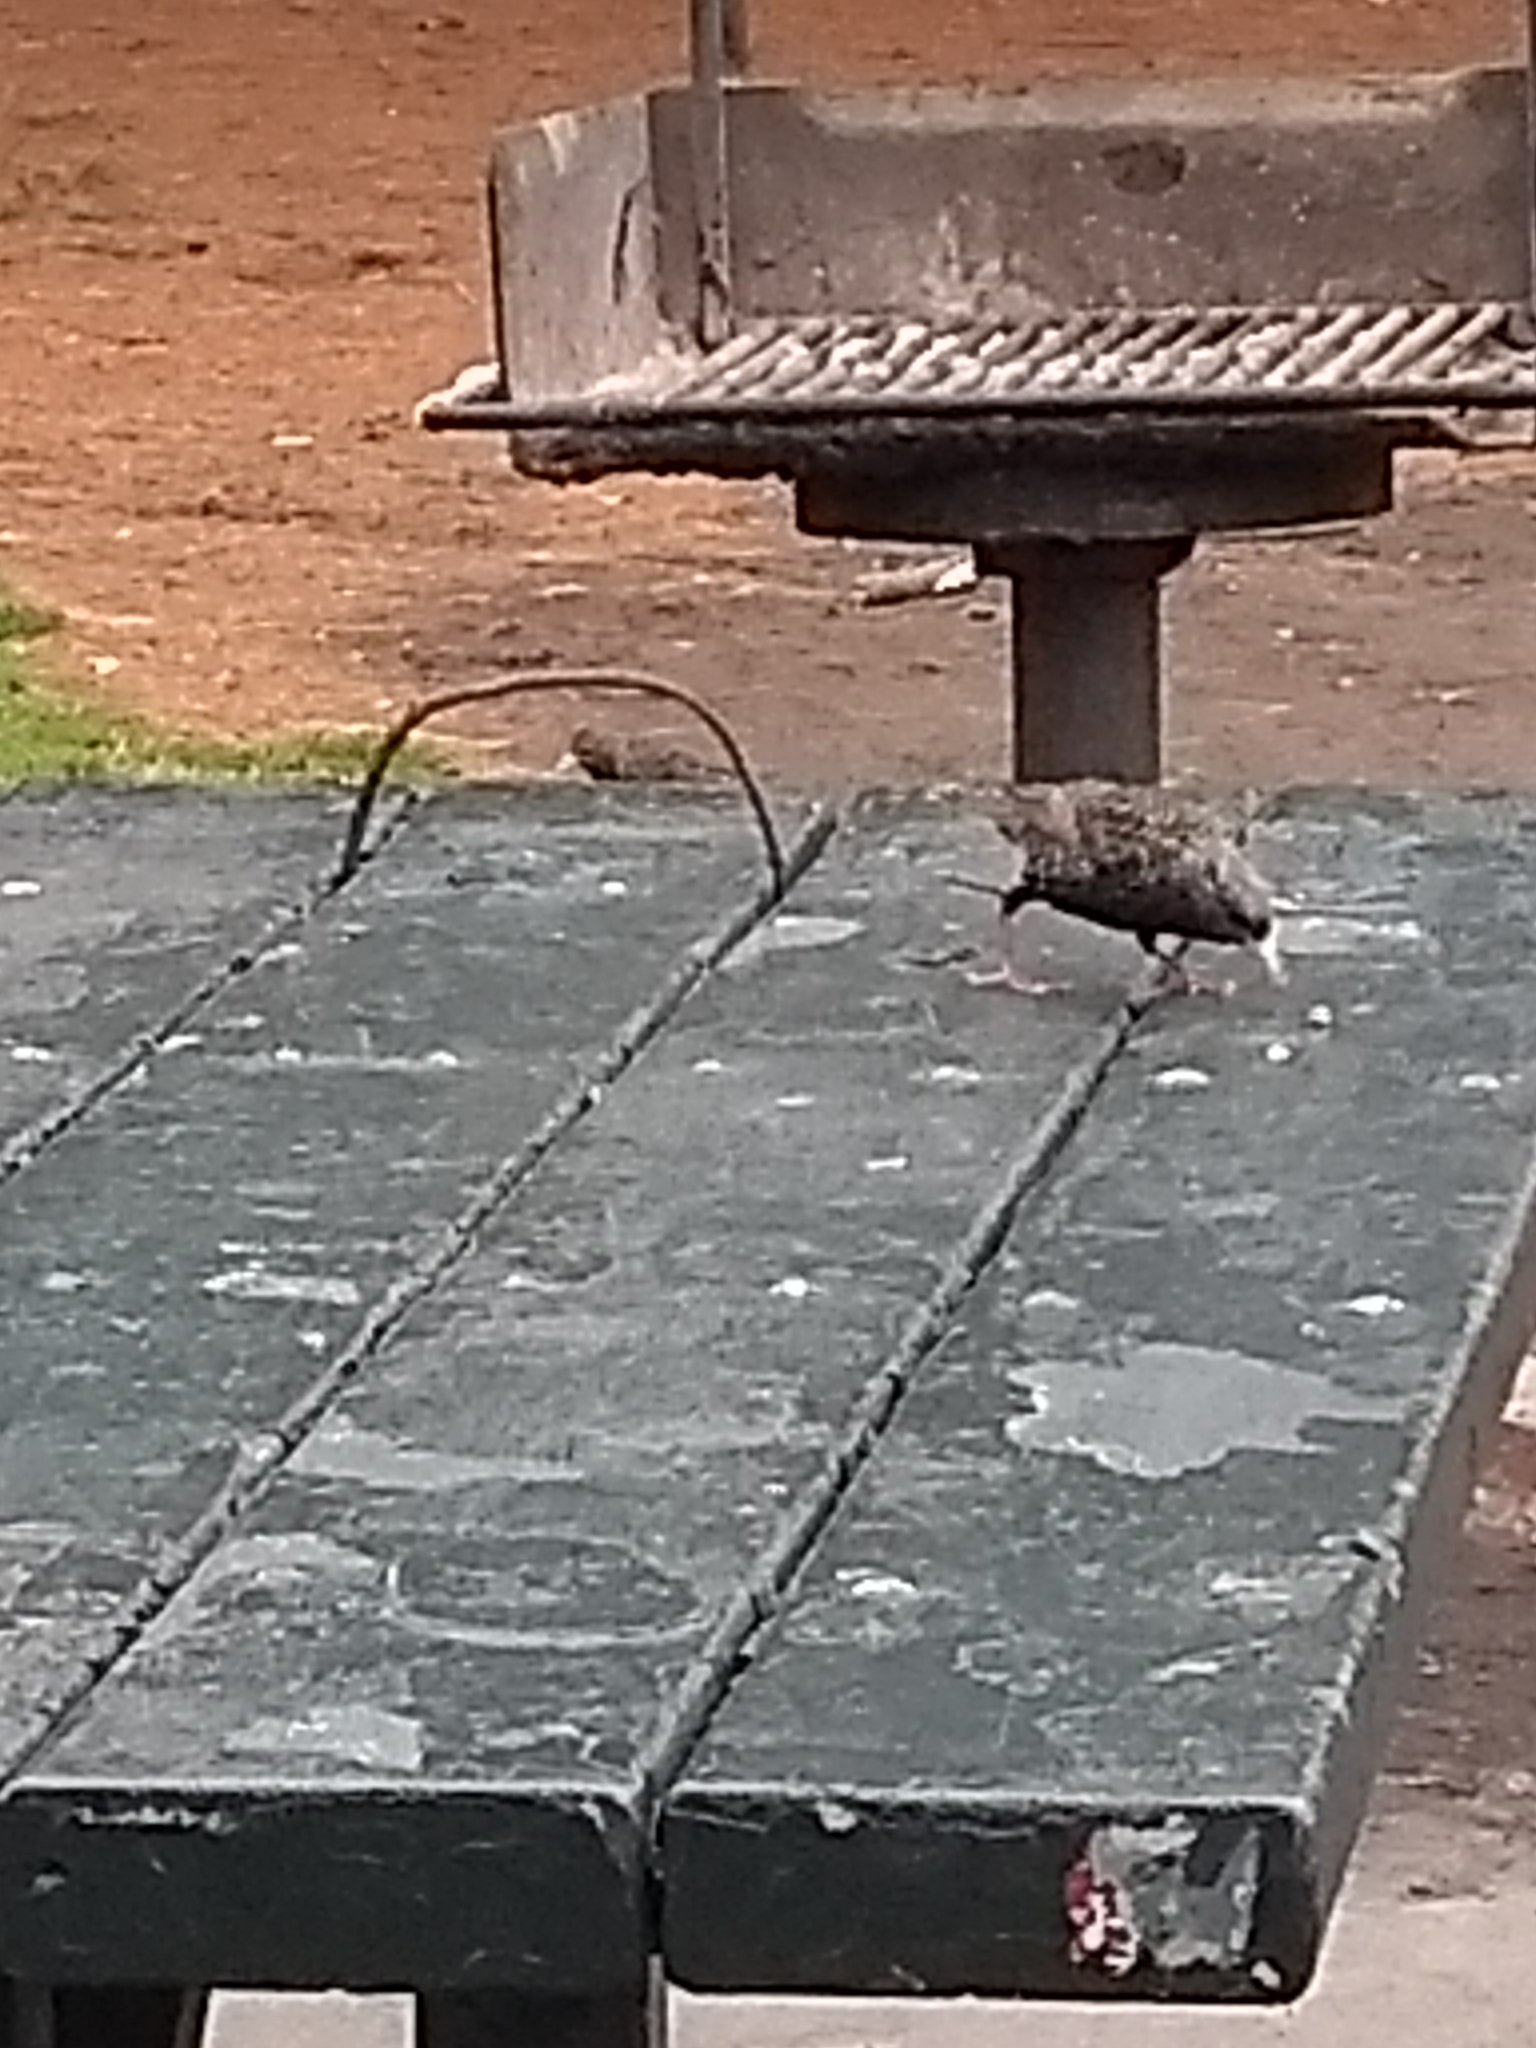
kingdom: Animalia
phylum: Chordata
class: Aves
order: Passeriformes
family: Sturnidae
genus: Sturnus
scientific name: Sturnus vulgaris
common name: Common starling
